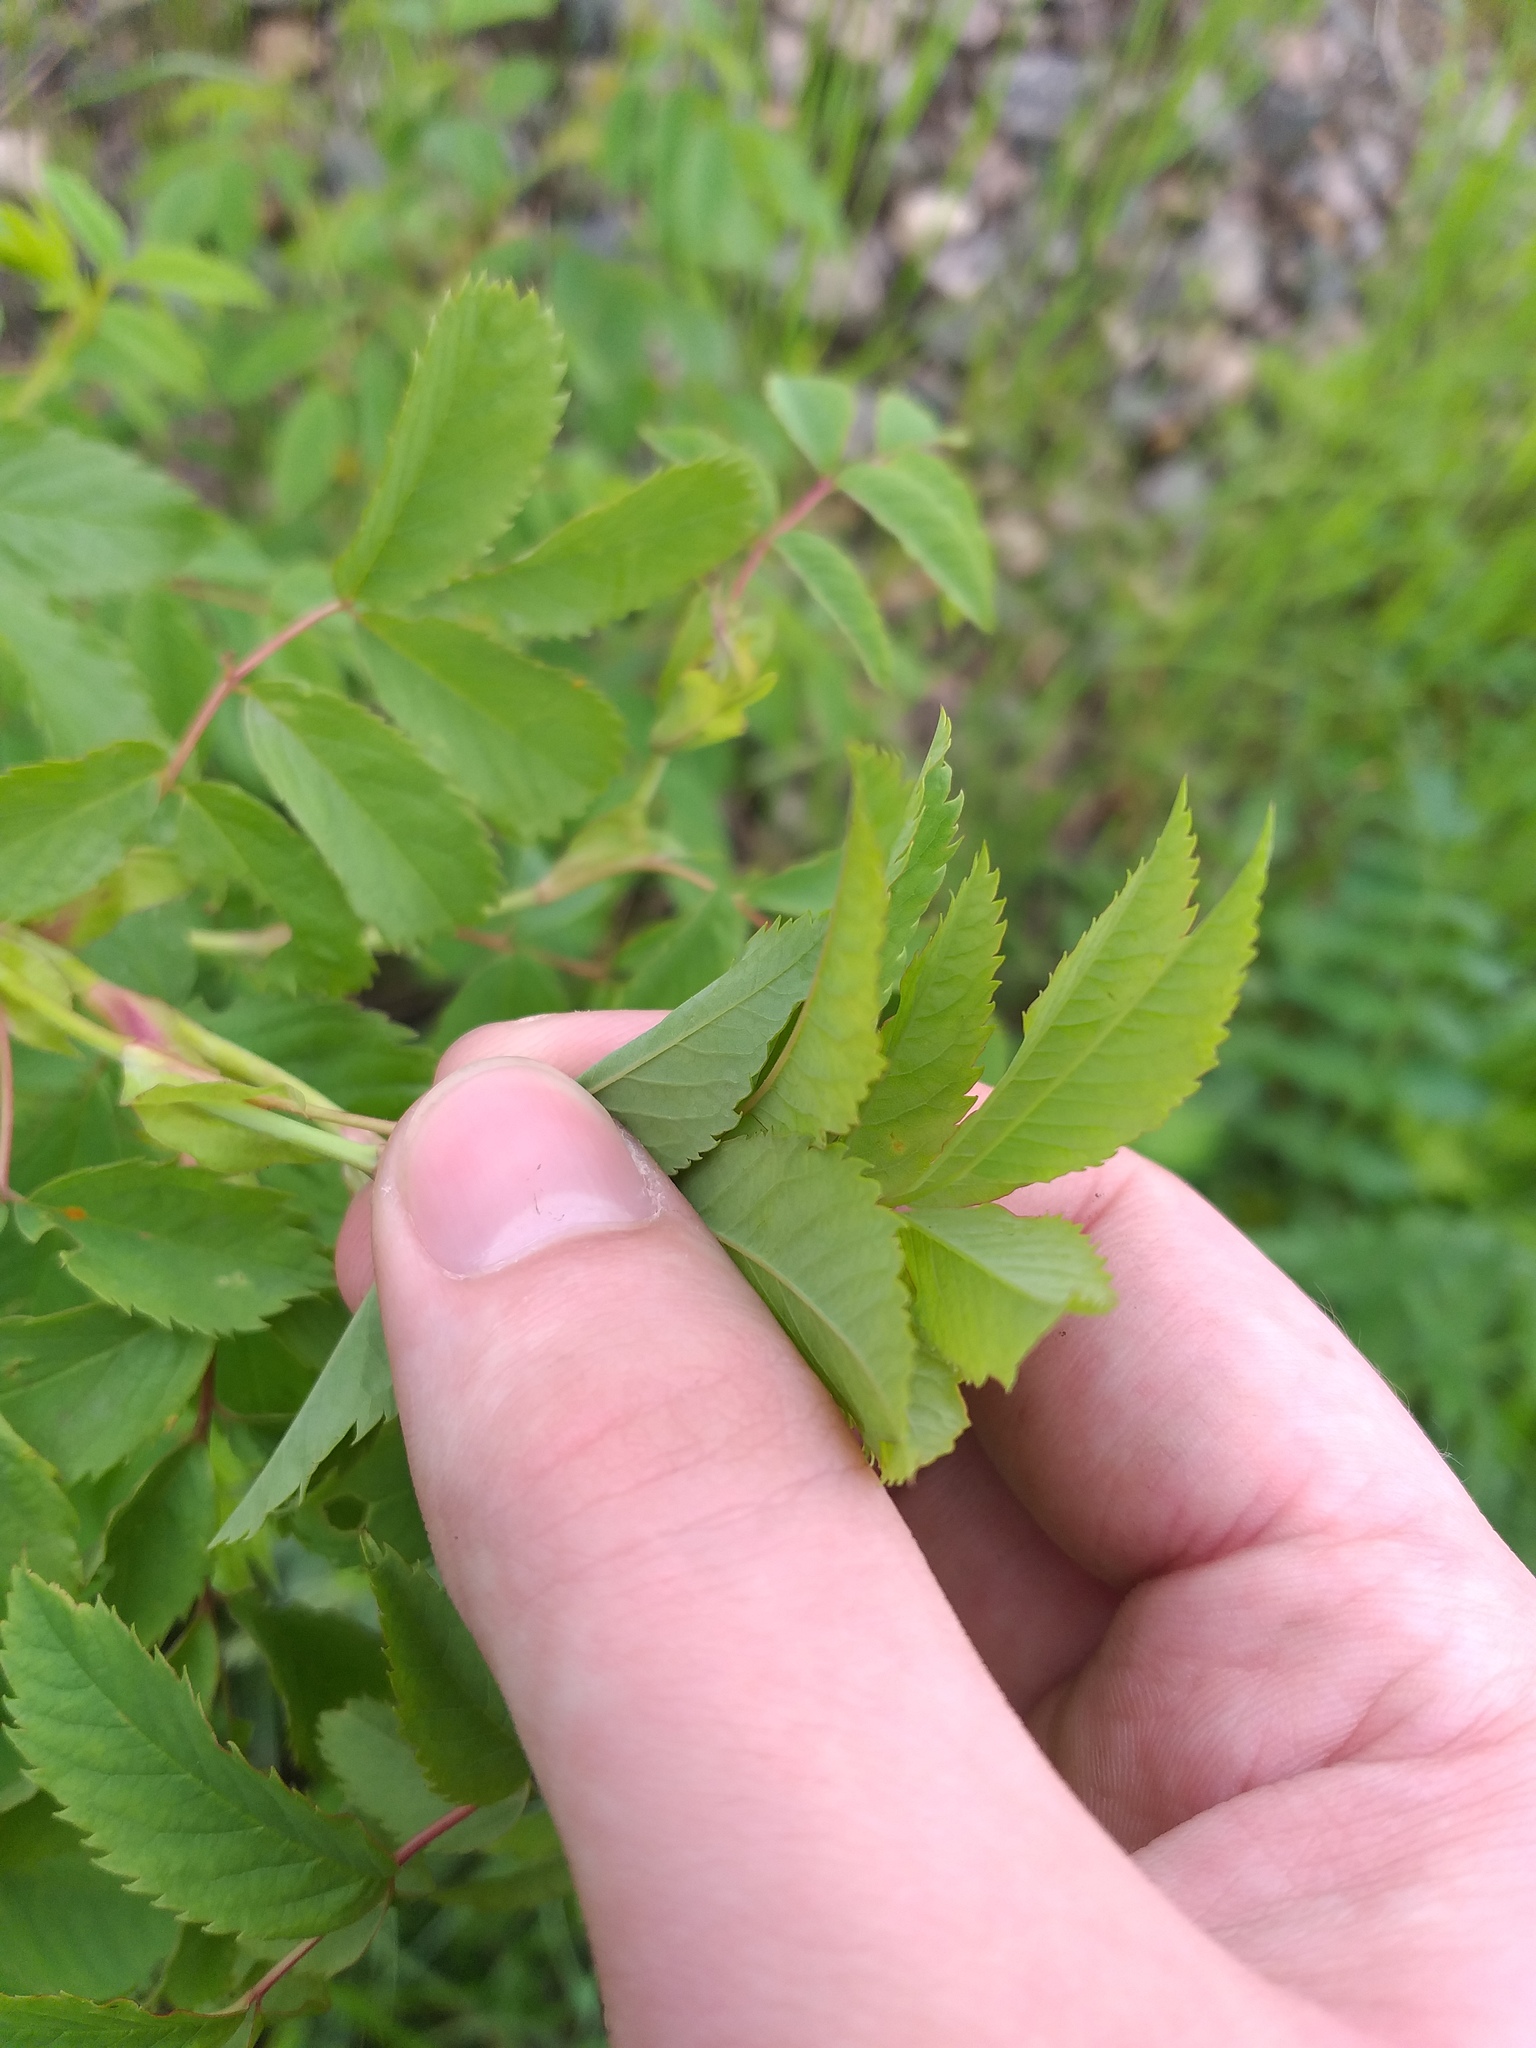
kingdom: Plantae
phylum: Tracheophyta
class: Magnoliopsida
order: Rosales
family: Rosaceae
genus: Rosa
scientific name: Rosa glabrifolia
